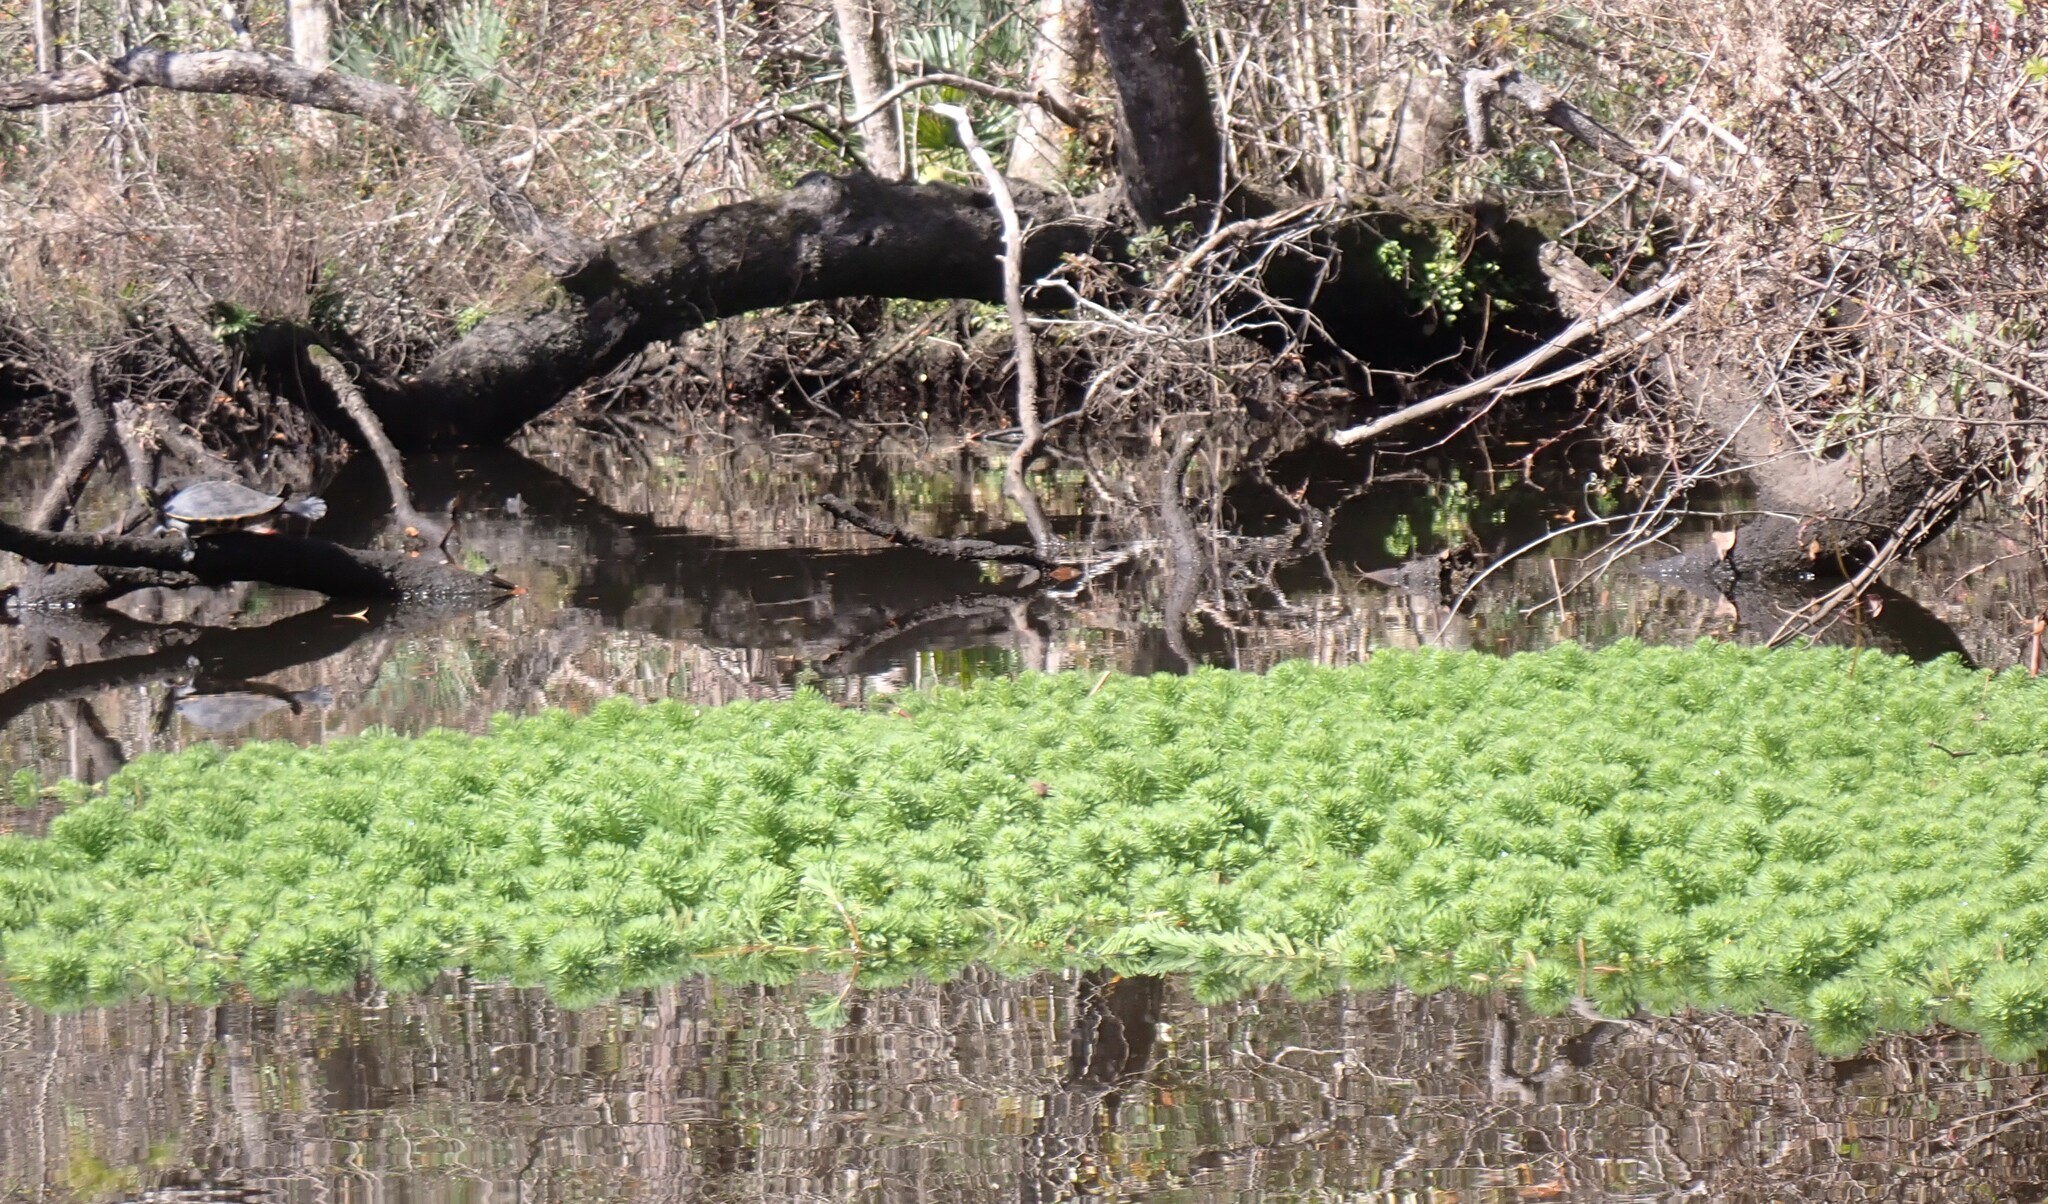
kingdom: Plantae
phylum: Tracheophyta
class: Magnoliopsida
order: Saxifragales
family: Haloragaceae
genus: Myriophyllum
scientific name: Myriophyllum aquaticum
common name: Parrot's feather
